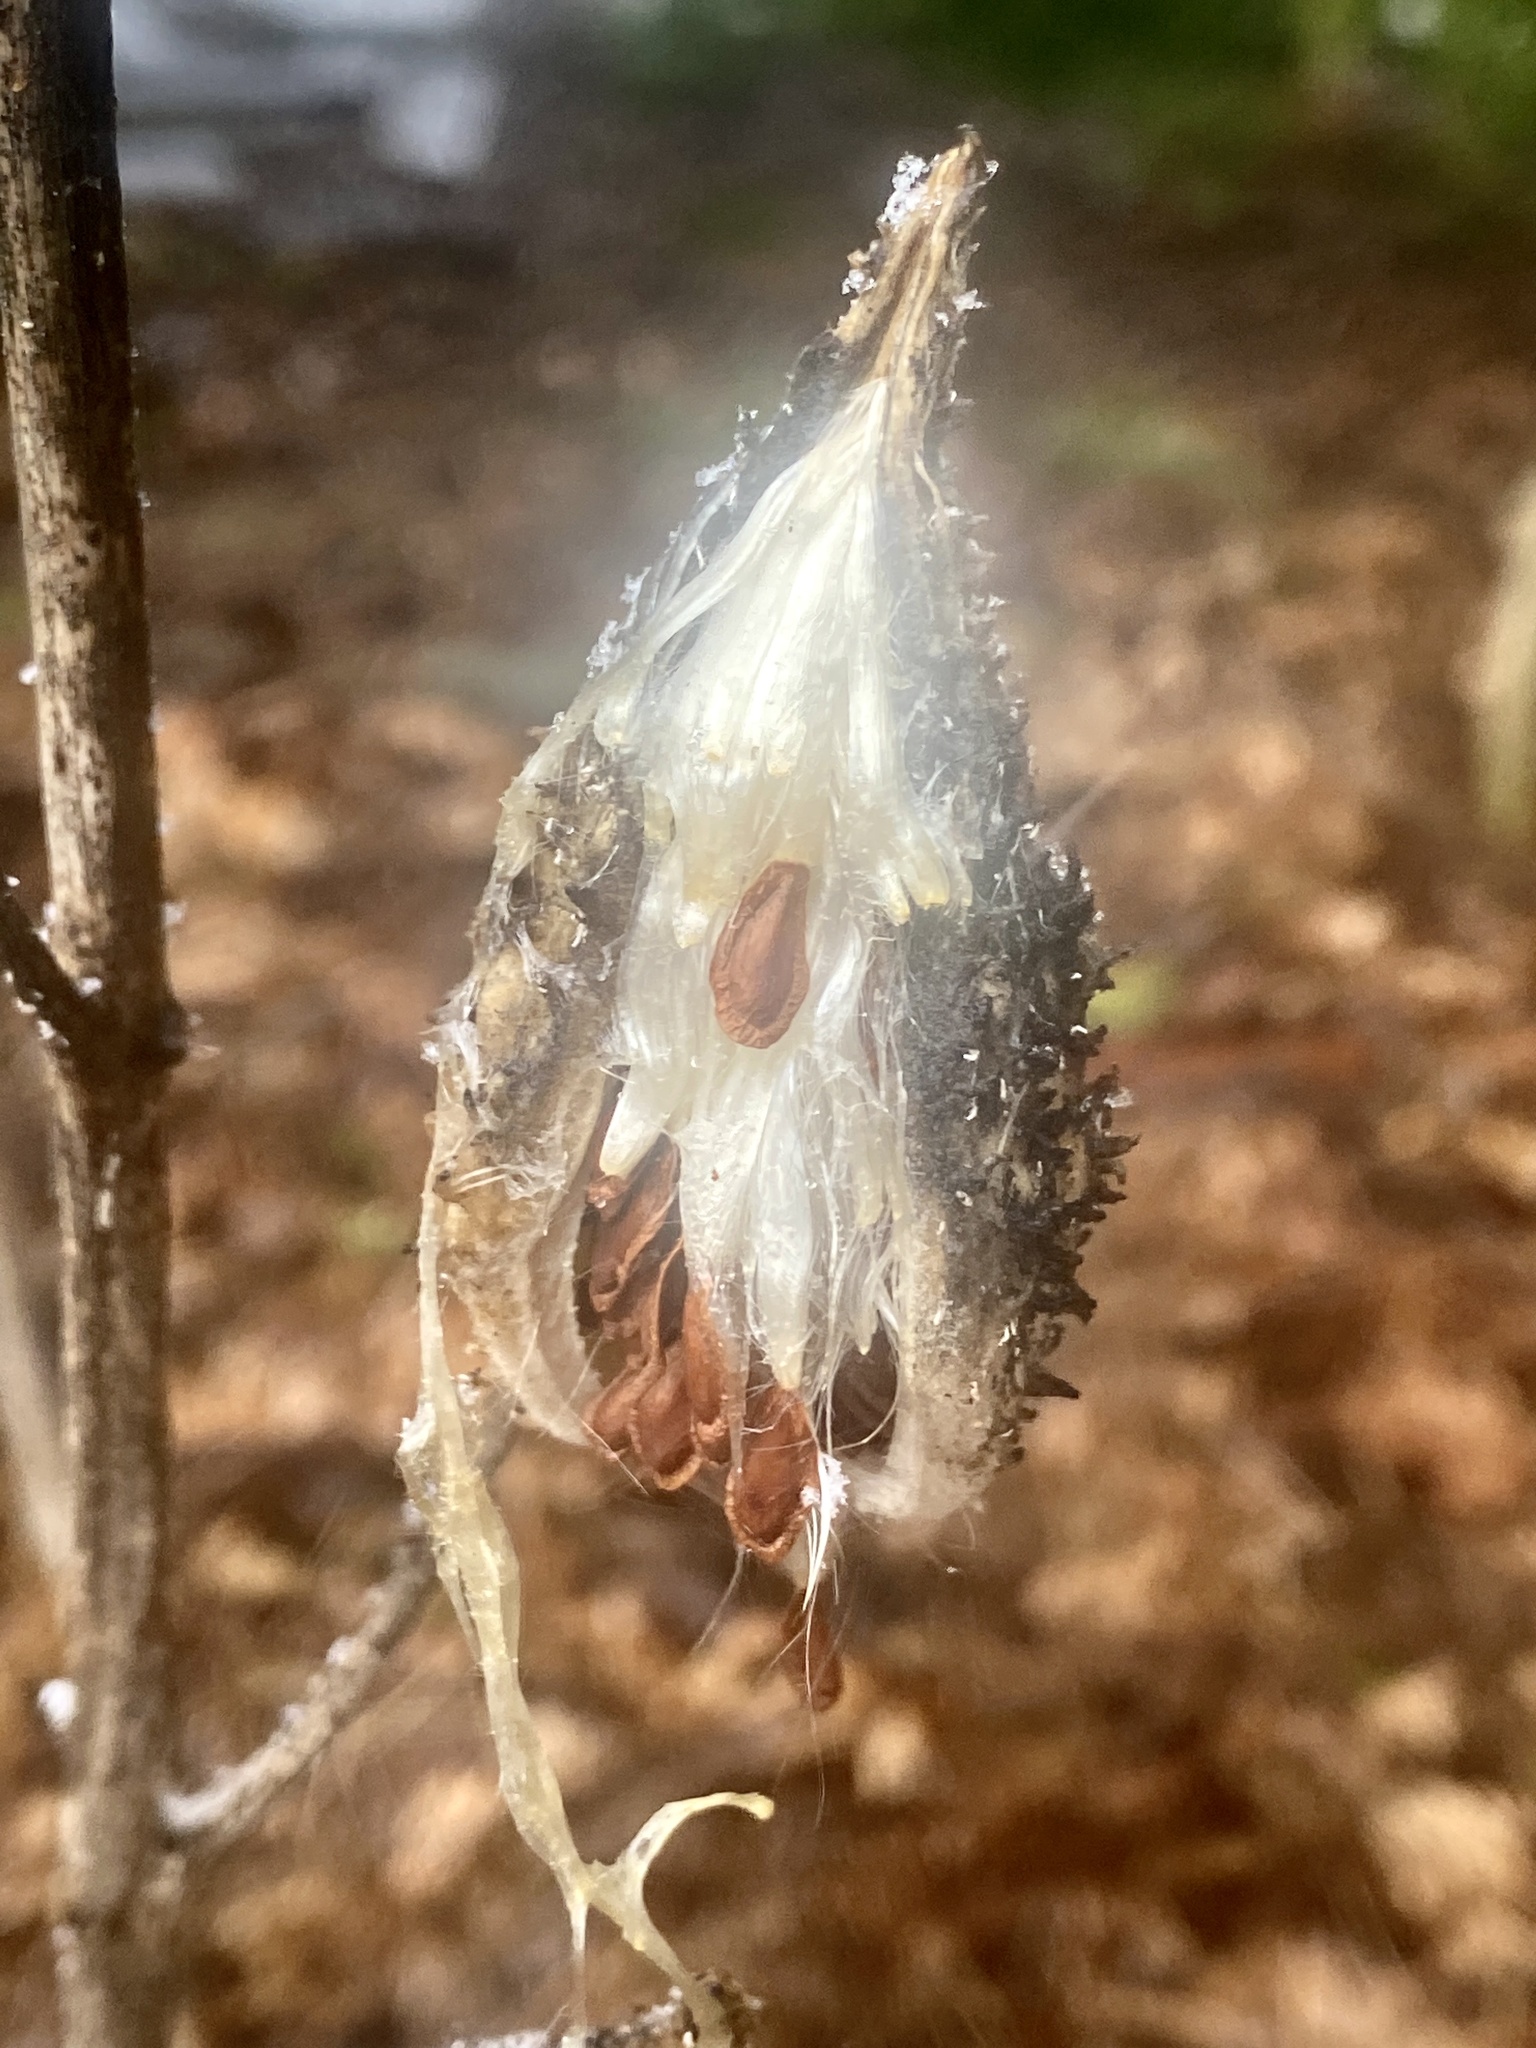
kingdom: Plantae
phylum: Tracheophyta
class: Magnoliopsida
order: Gentianales
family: Apocynaceae
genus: Asclepias
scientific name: Asclepias syriaca
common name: Common milkweed
